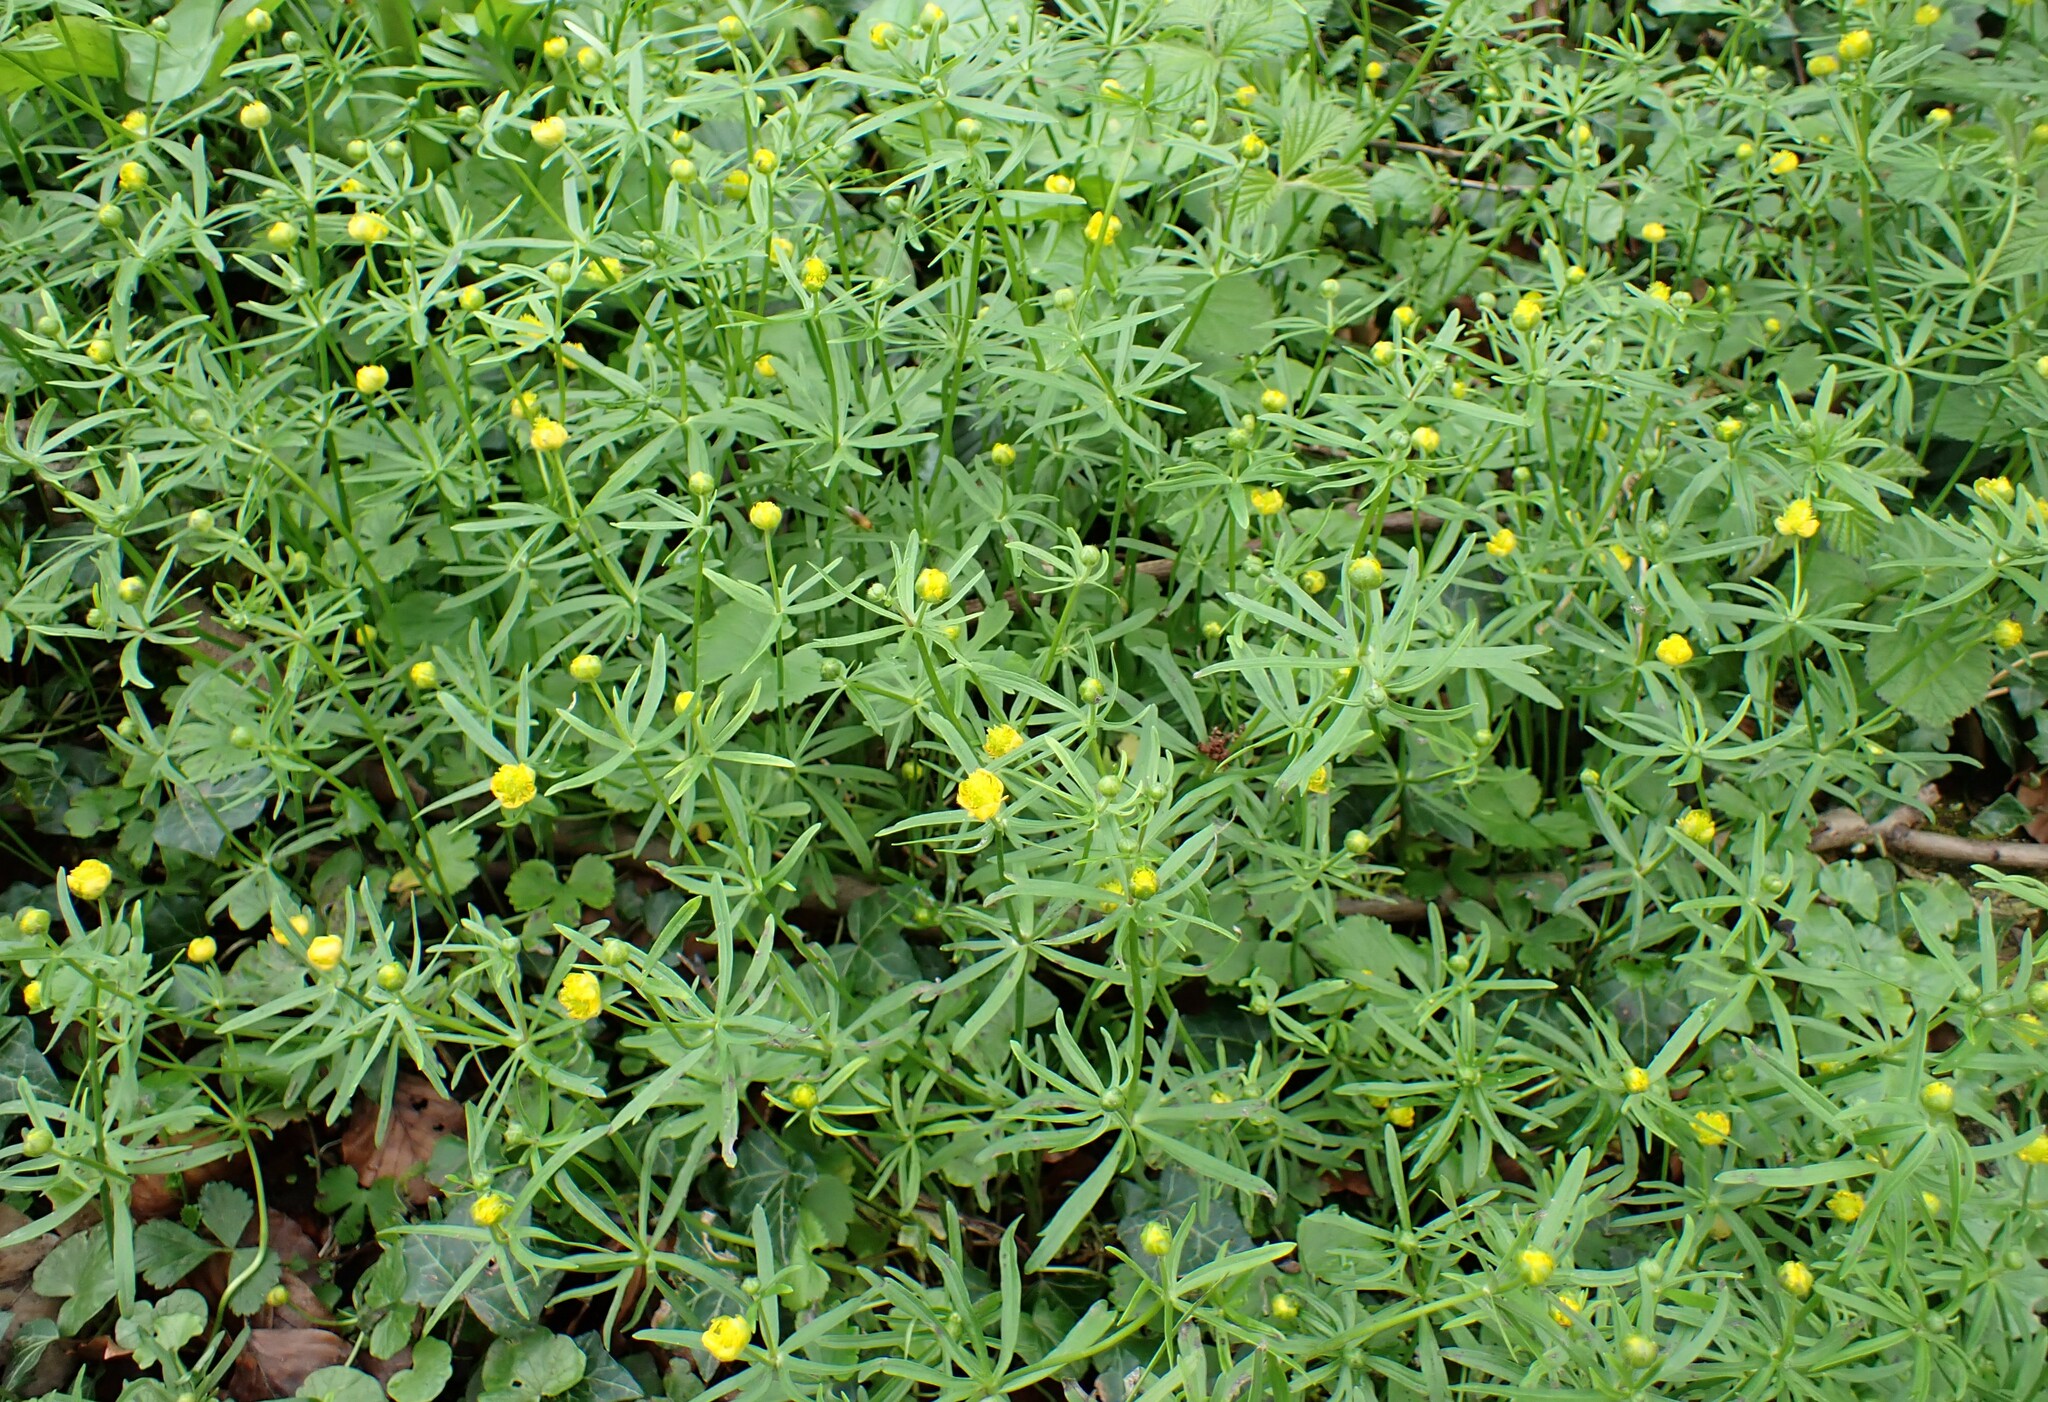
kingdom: Plantae
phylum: Tracheophyta
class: Magnoliopsida
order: Ranunculales
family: Ranunculaceae
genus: Ranunculus
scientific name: Ranunculus auricomus
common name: Goldilocks buttercup
